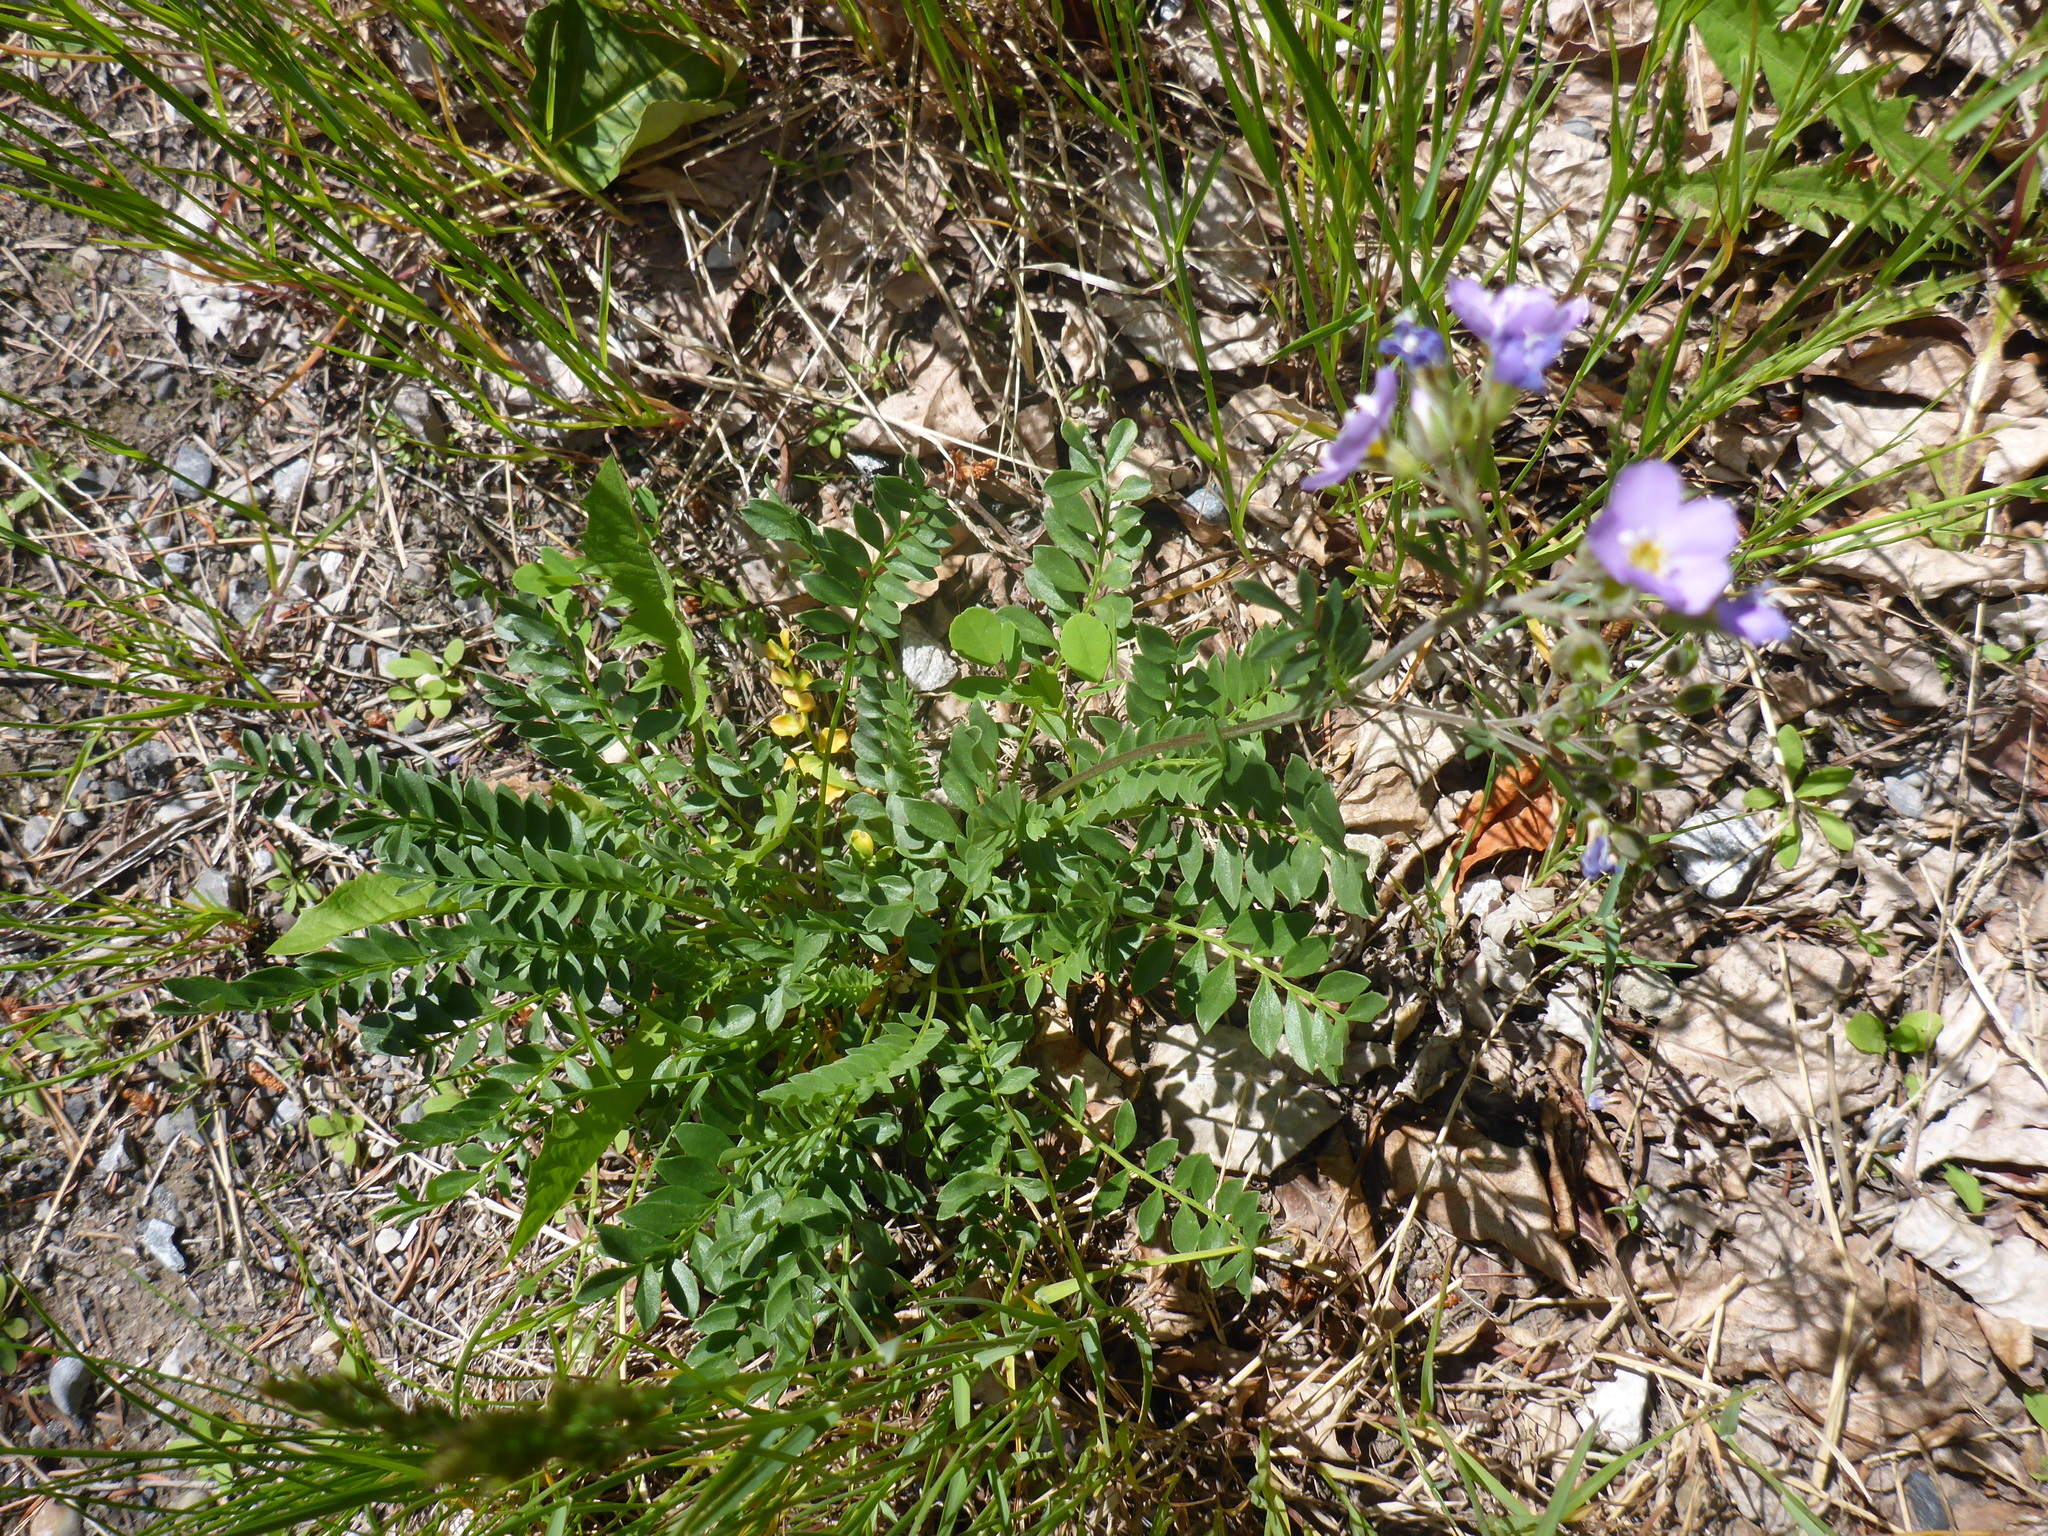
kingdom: Plantae
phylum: Tracheophyta
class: Magnoliopsida
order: Ericales
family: Polemoniaceae
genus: Polemonium
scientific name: Polemonium pulcherrimum
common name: Short jacob's-ladder
